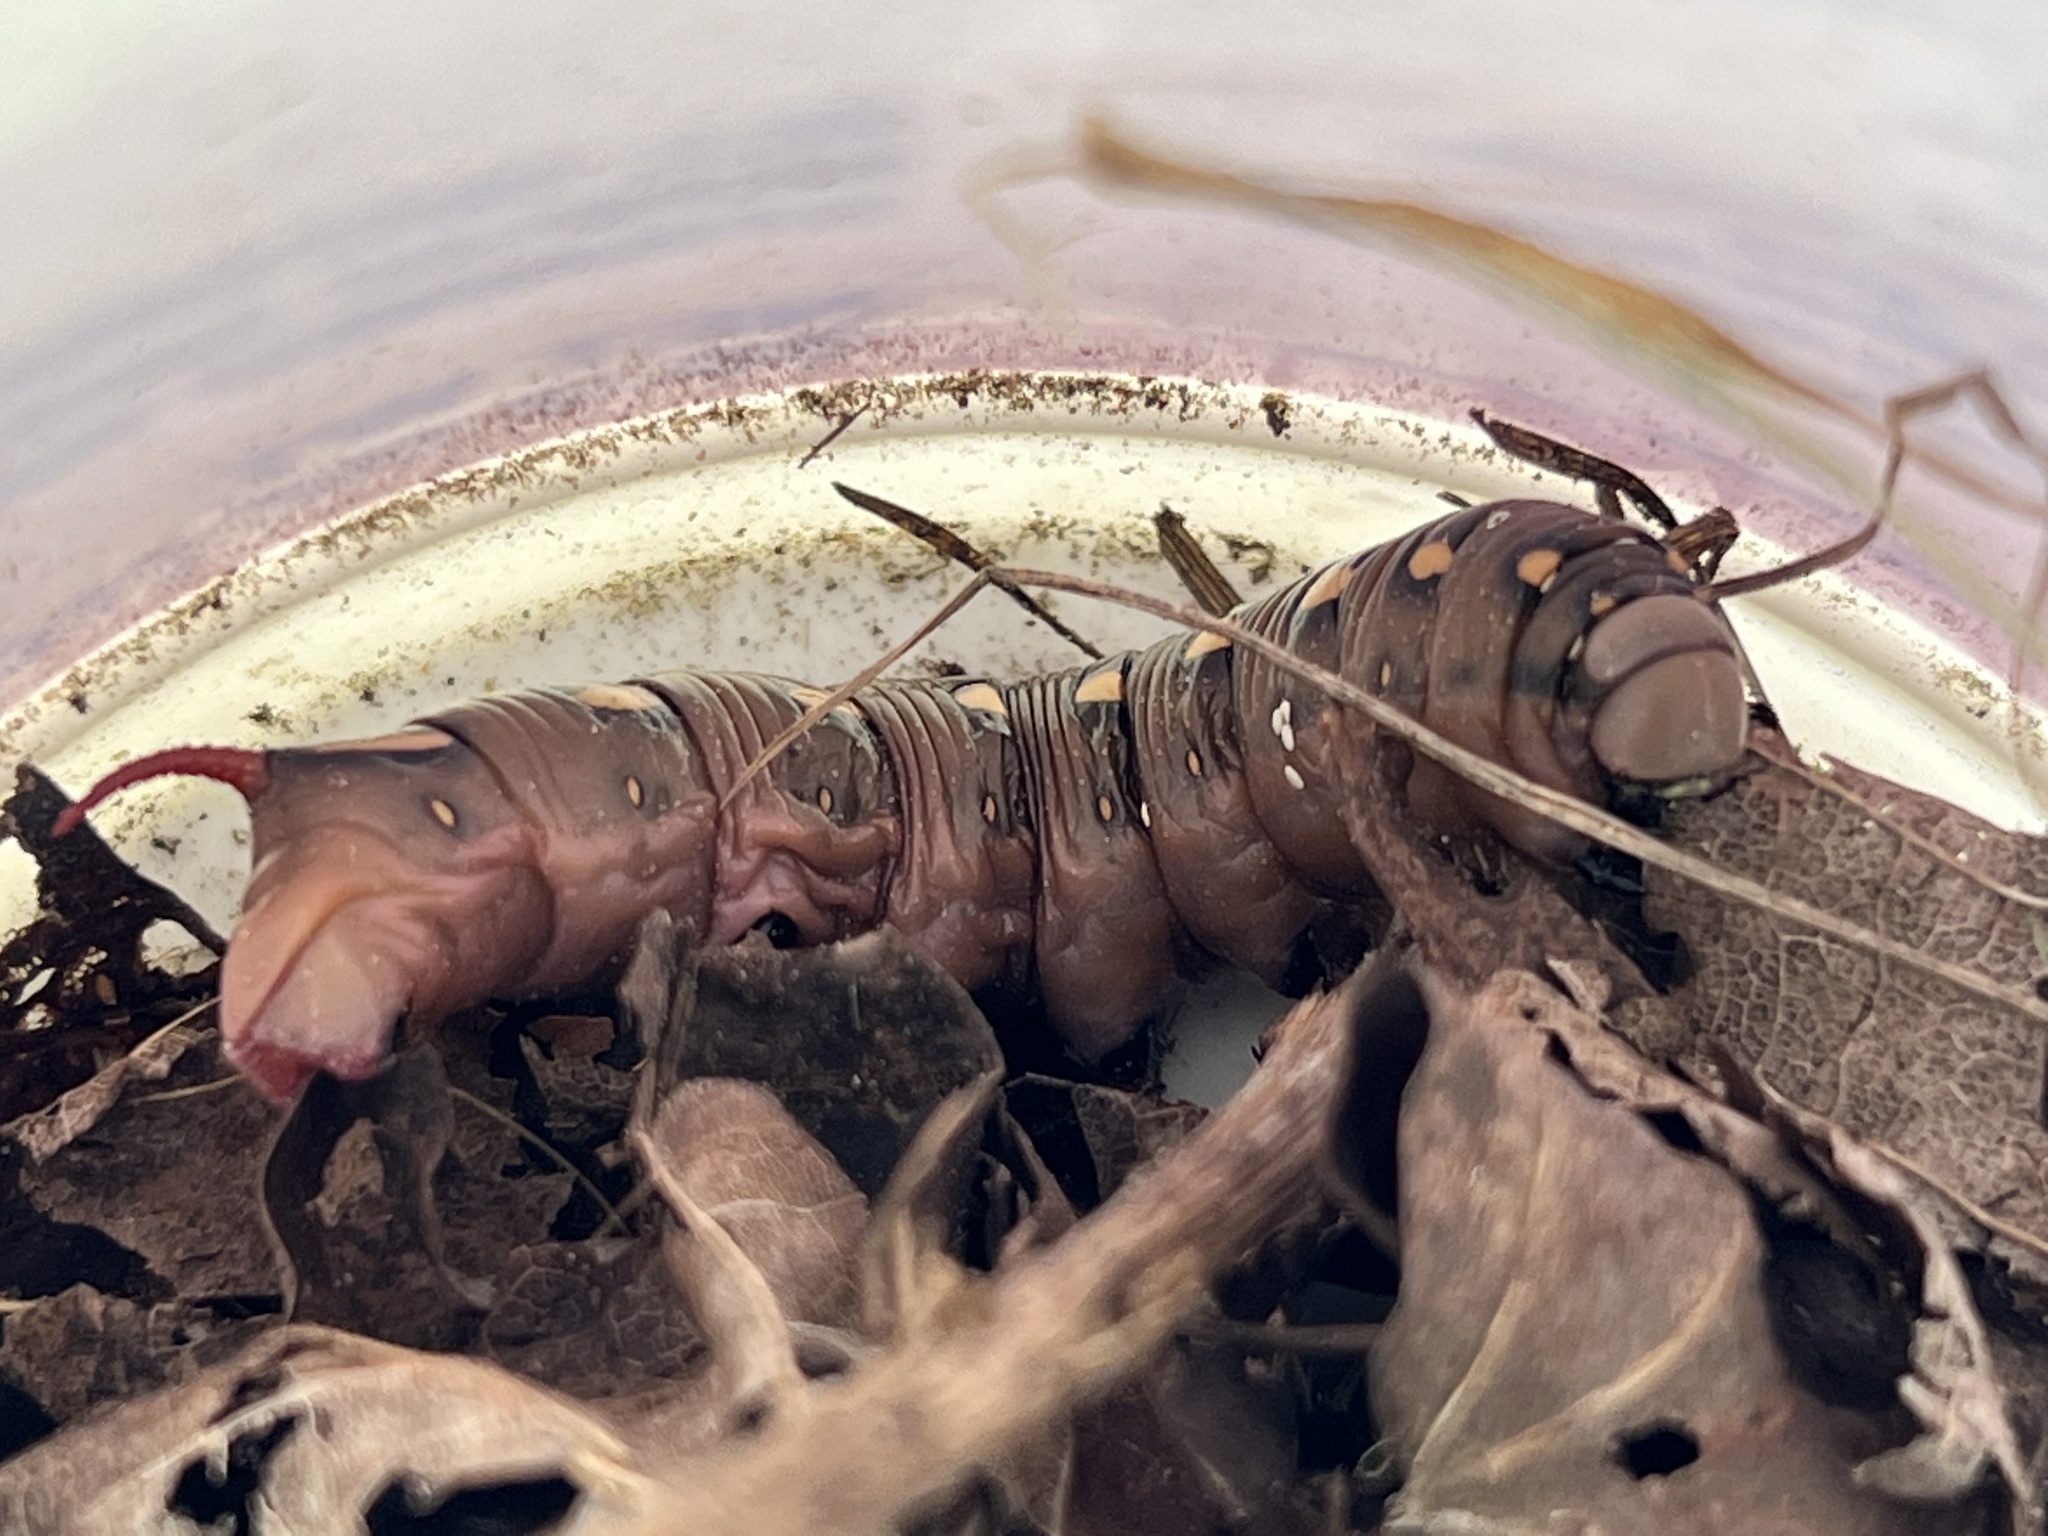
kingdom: Animalia
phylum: Arthropoda
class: Insecta
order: Lepidoptera
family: Sphingidae
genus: Hyles
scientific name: Hyles gallii
